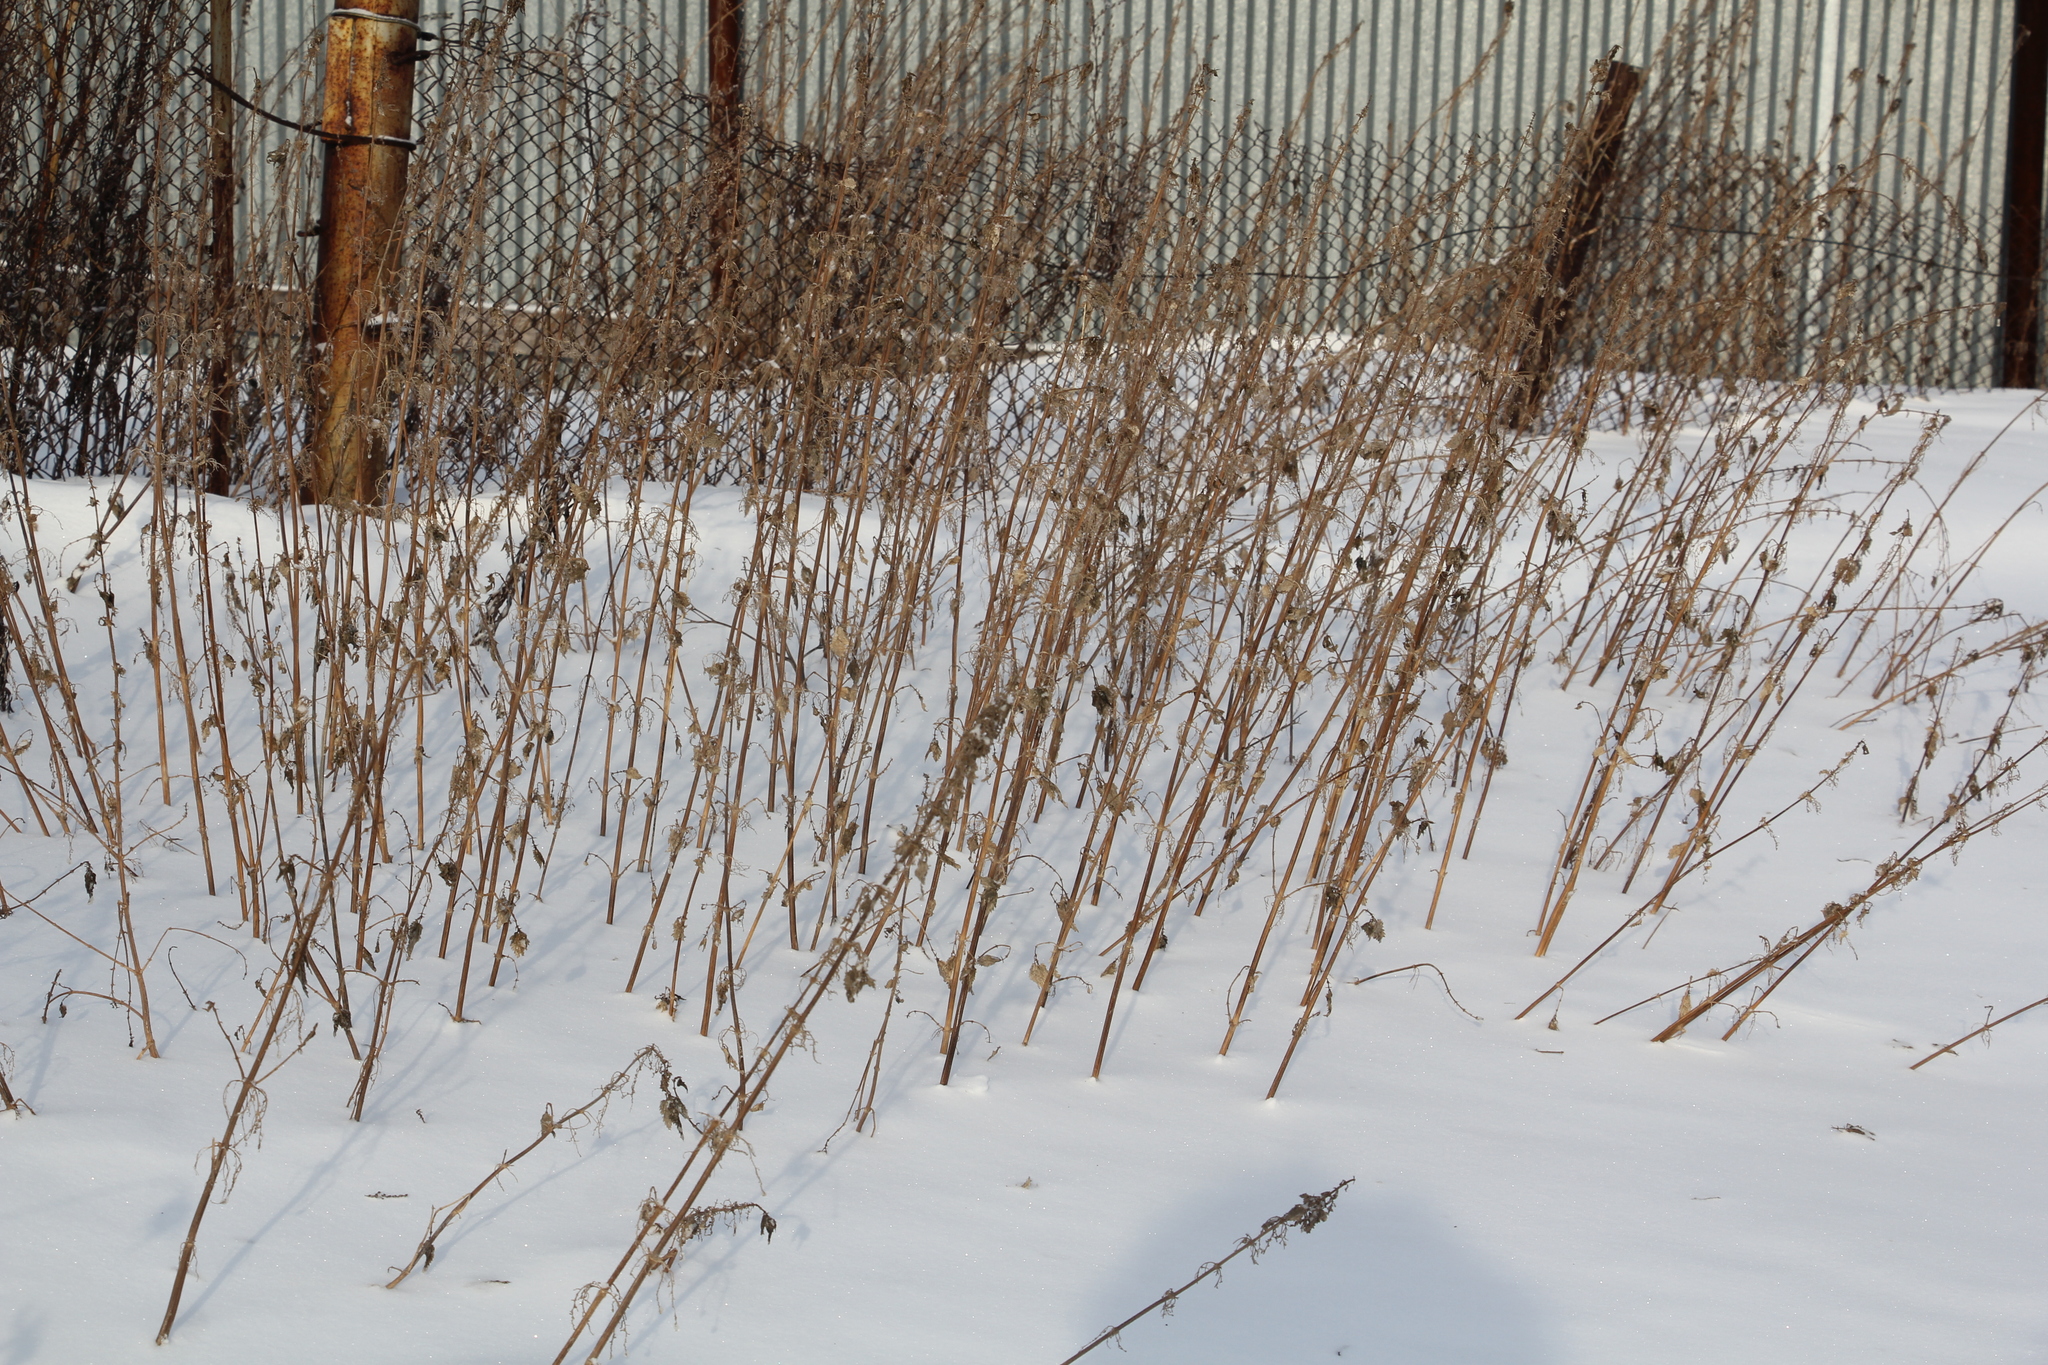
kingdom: Plantae
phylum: Tracheophyta
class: Magnoliopsida
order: Rosales
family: Urticaceae
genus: Urtica
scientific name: Urtica dioica
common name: Common nettle
